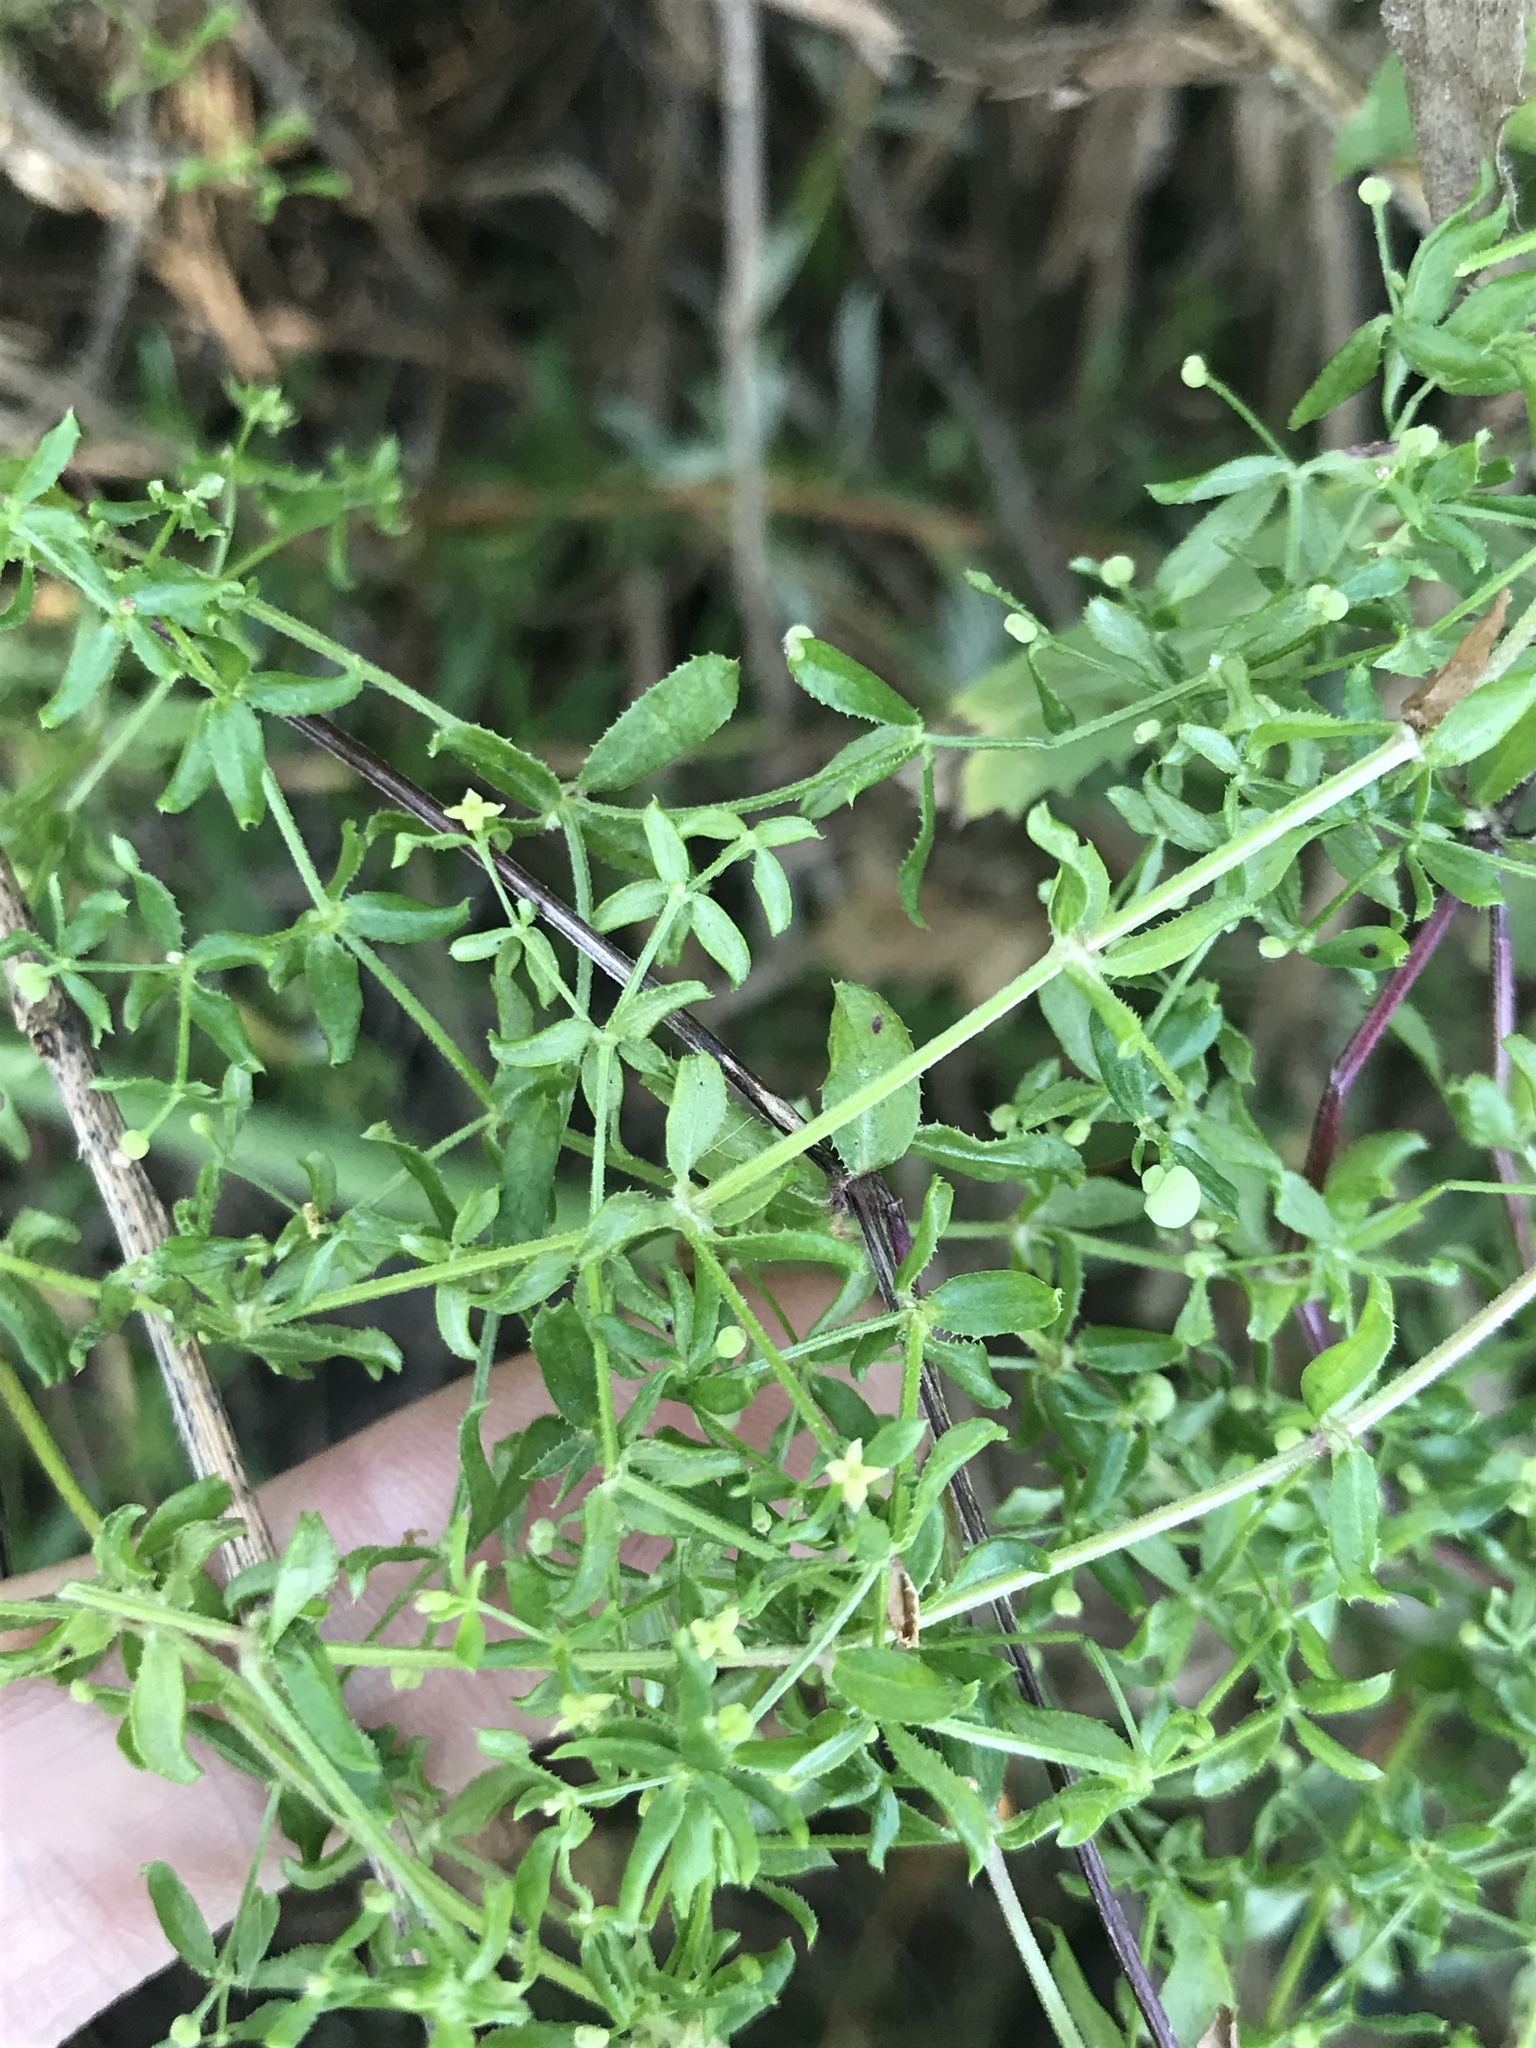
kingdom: Plantae
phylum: Tracheophyta
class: Magnoliopsida
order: Gentianales
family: Rubiaceae
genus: Galium
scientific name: Galium porrigens
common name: Climbing bedstraw
